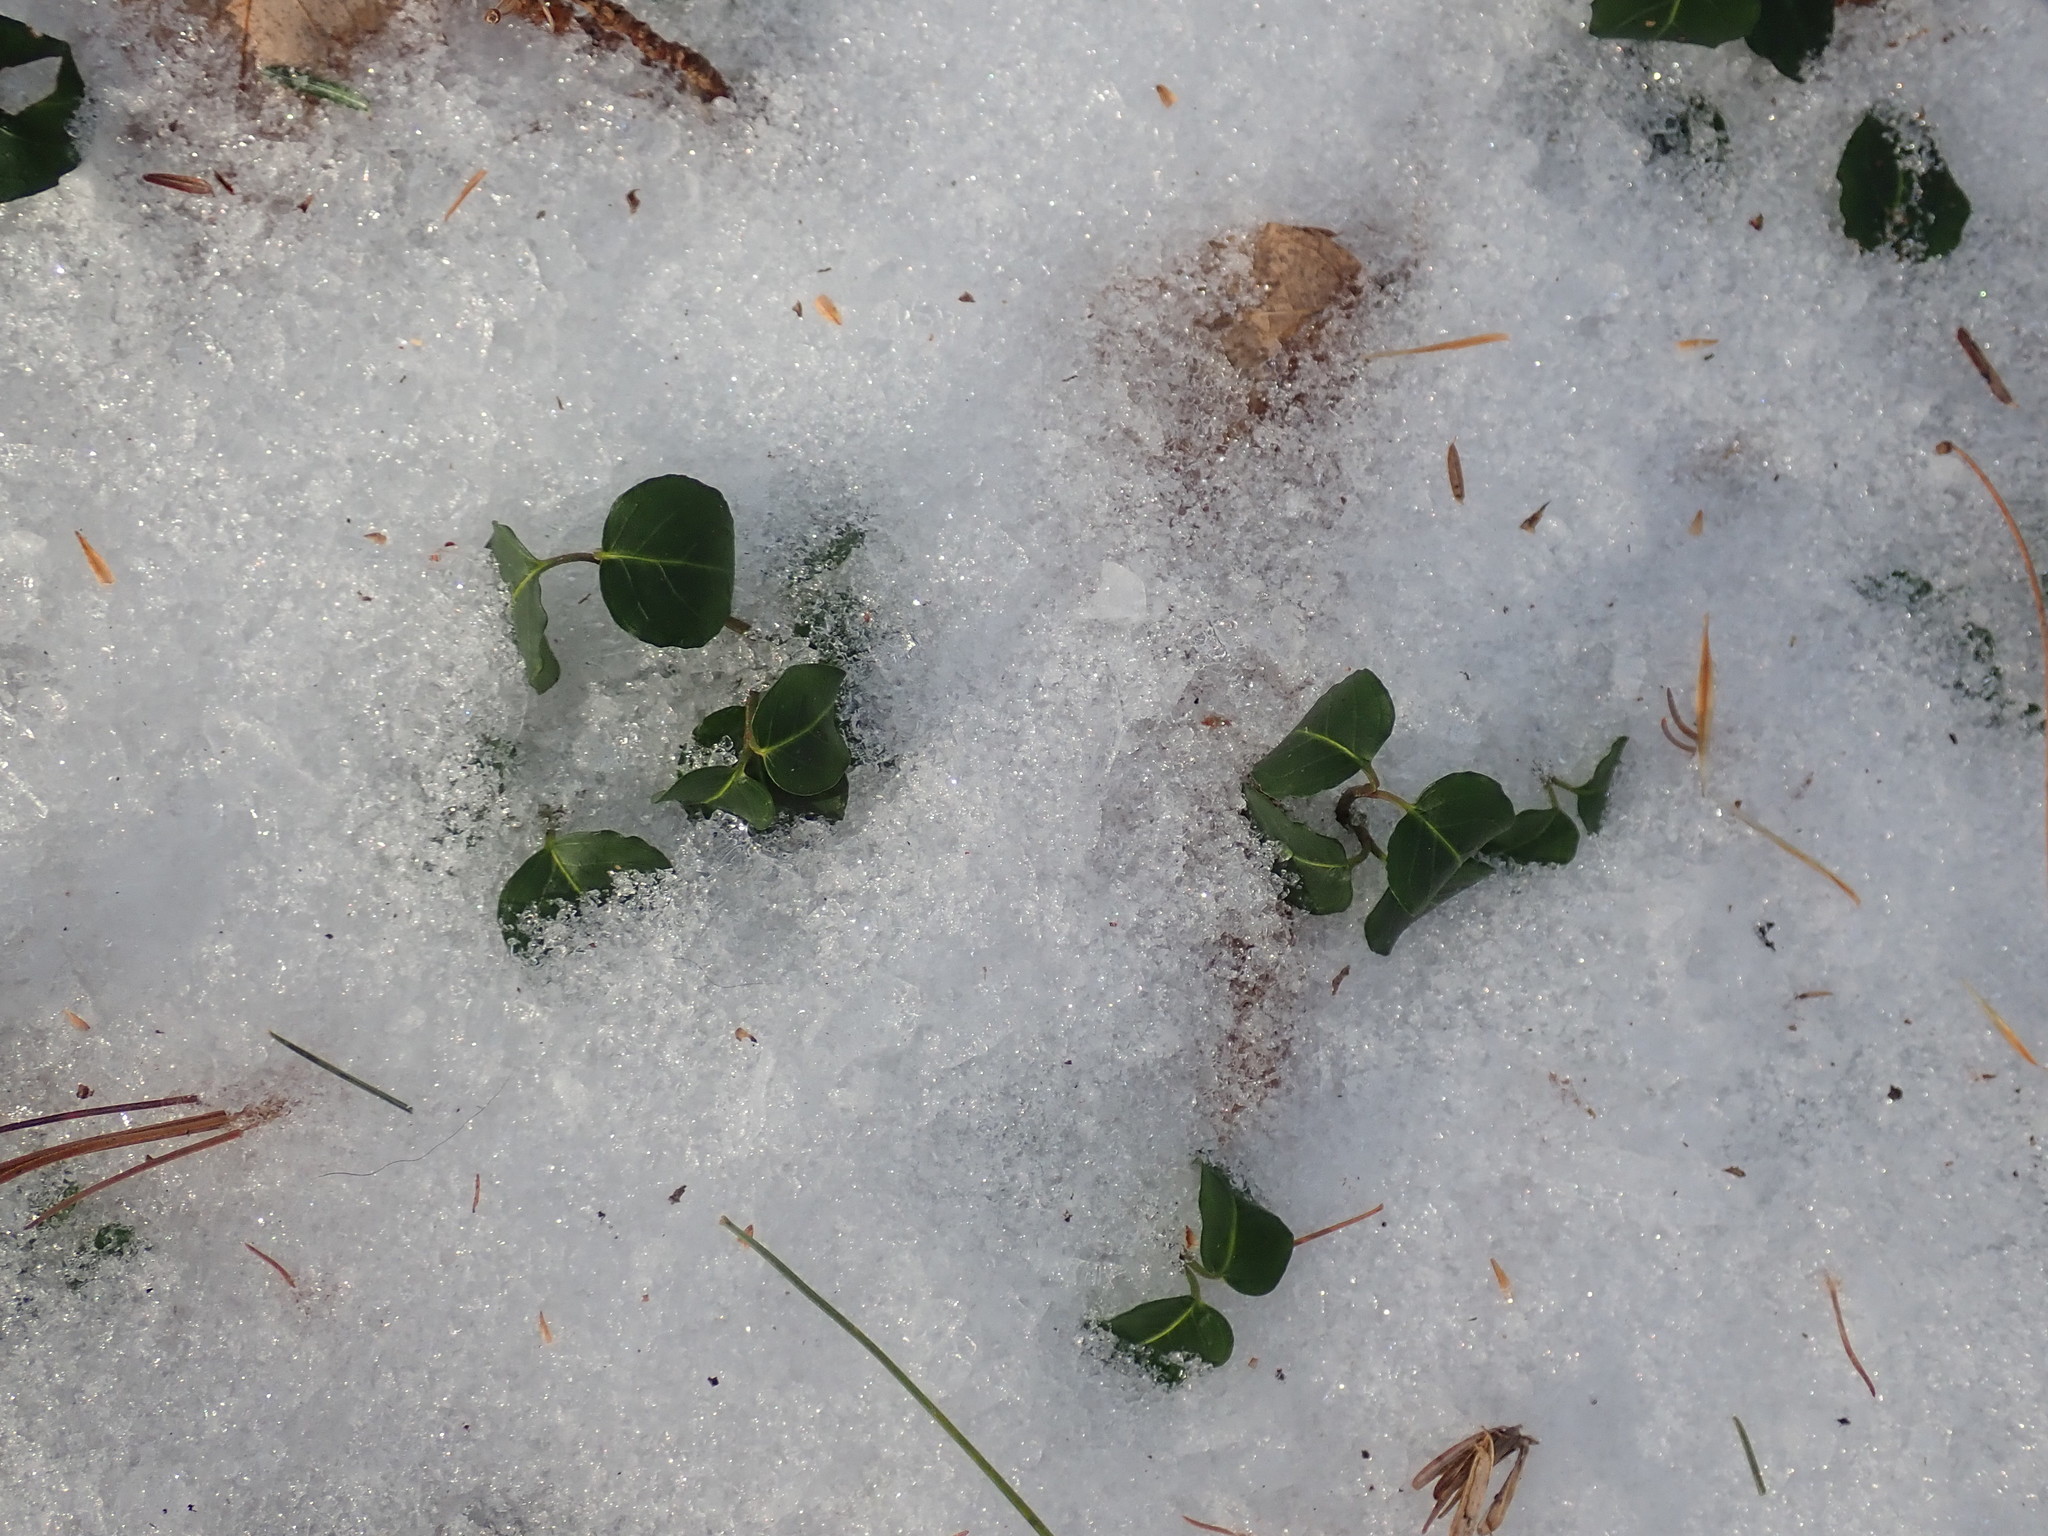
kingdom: Plantae
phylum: Tracheophyta
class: Magnoliopsida
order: Gentianales
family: Rubiaceae
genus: Mitchella
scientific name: Mitchella repens
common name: Partridge-berry
